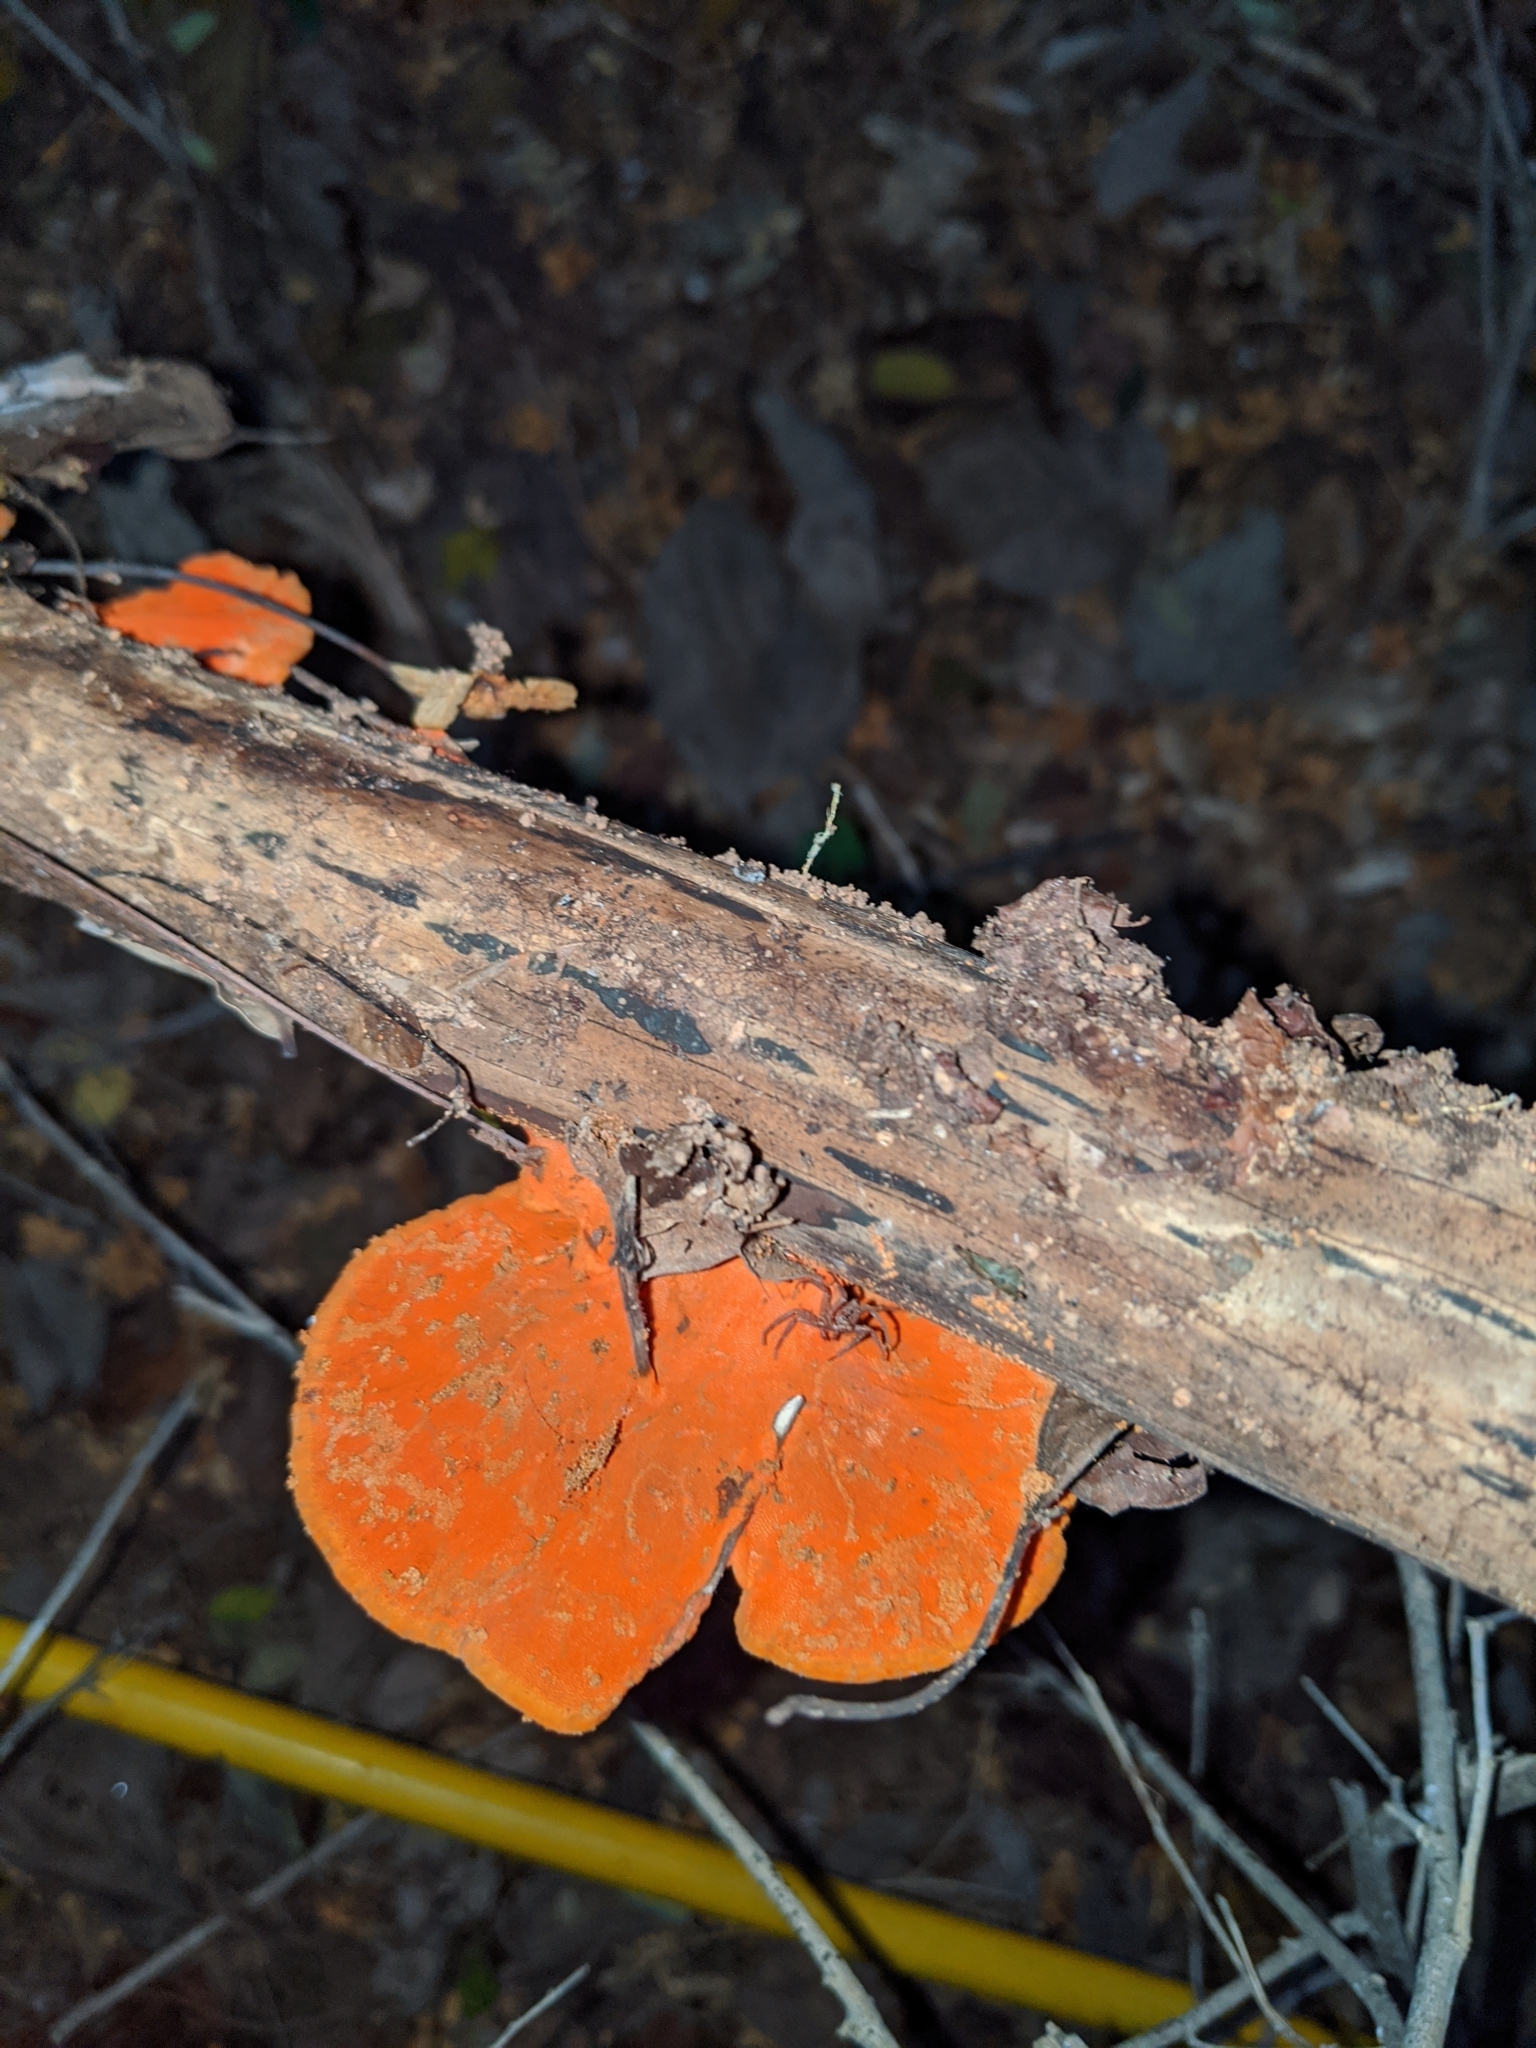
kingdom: Fungi
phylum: Basidiomycota
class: Agaricomycetes
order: Polyporales
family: Polyporaceae
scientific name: Polyporaceae
